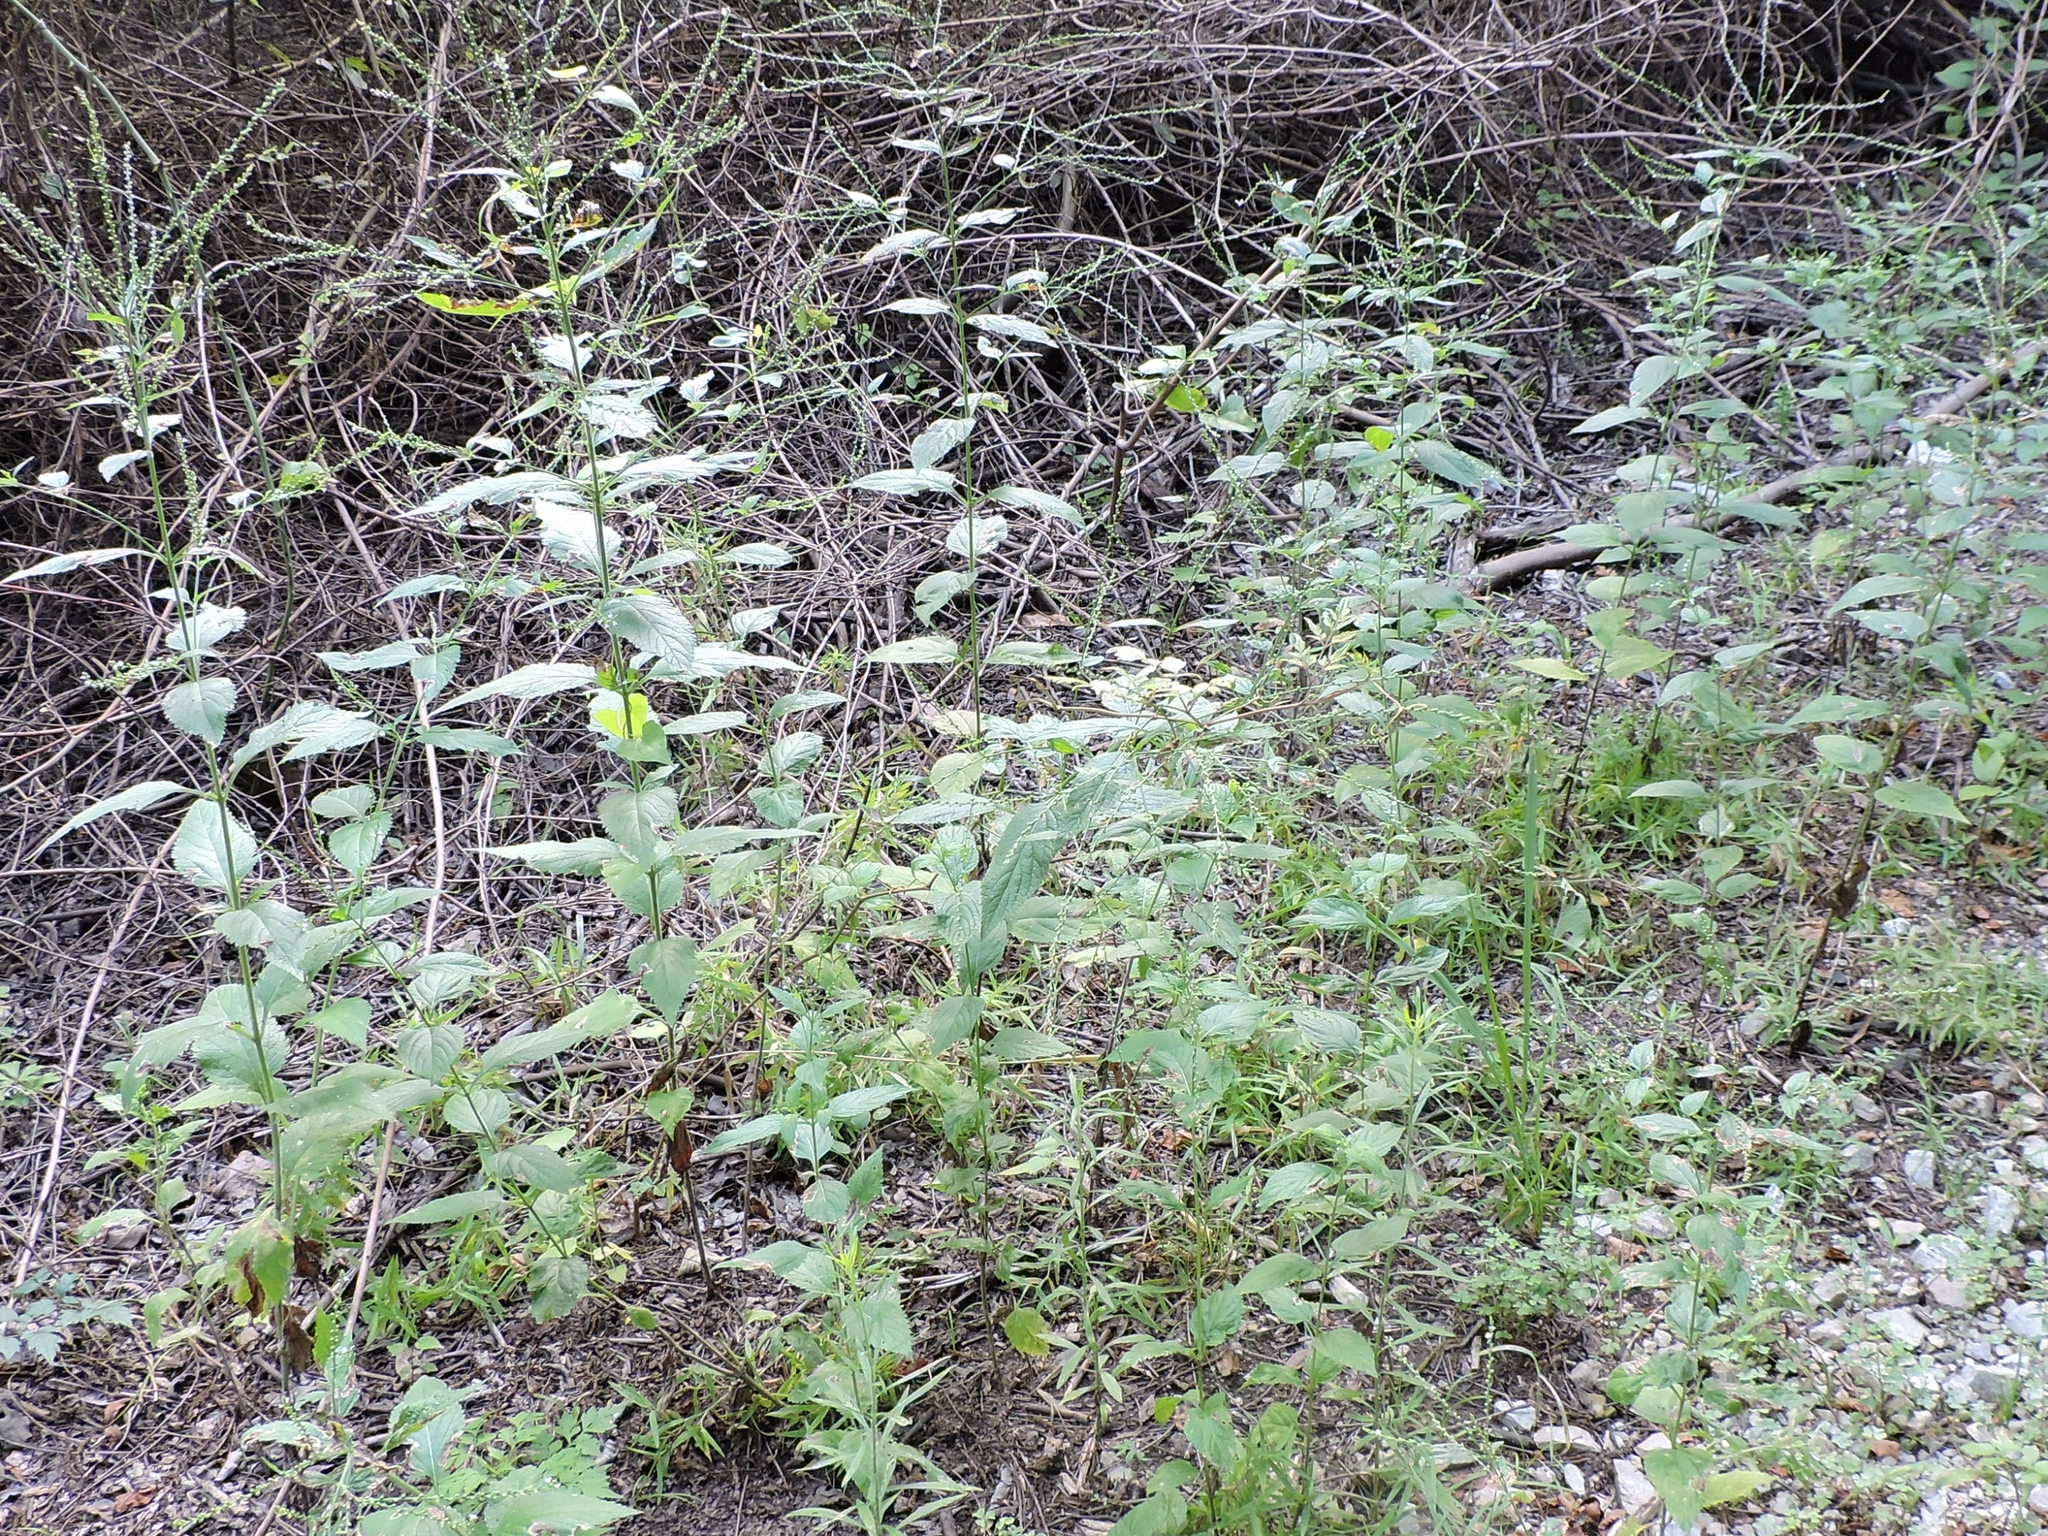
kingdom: Plantae
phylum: Tracheophyta
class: Magnoliopsida
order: Lamiales
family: Verbenaceae
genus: Verbena
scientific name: Verbena urticifolia
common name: Nettle-leaved vervain
